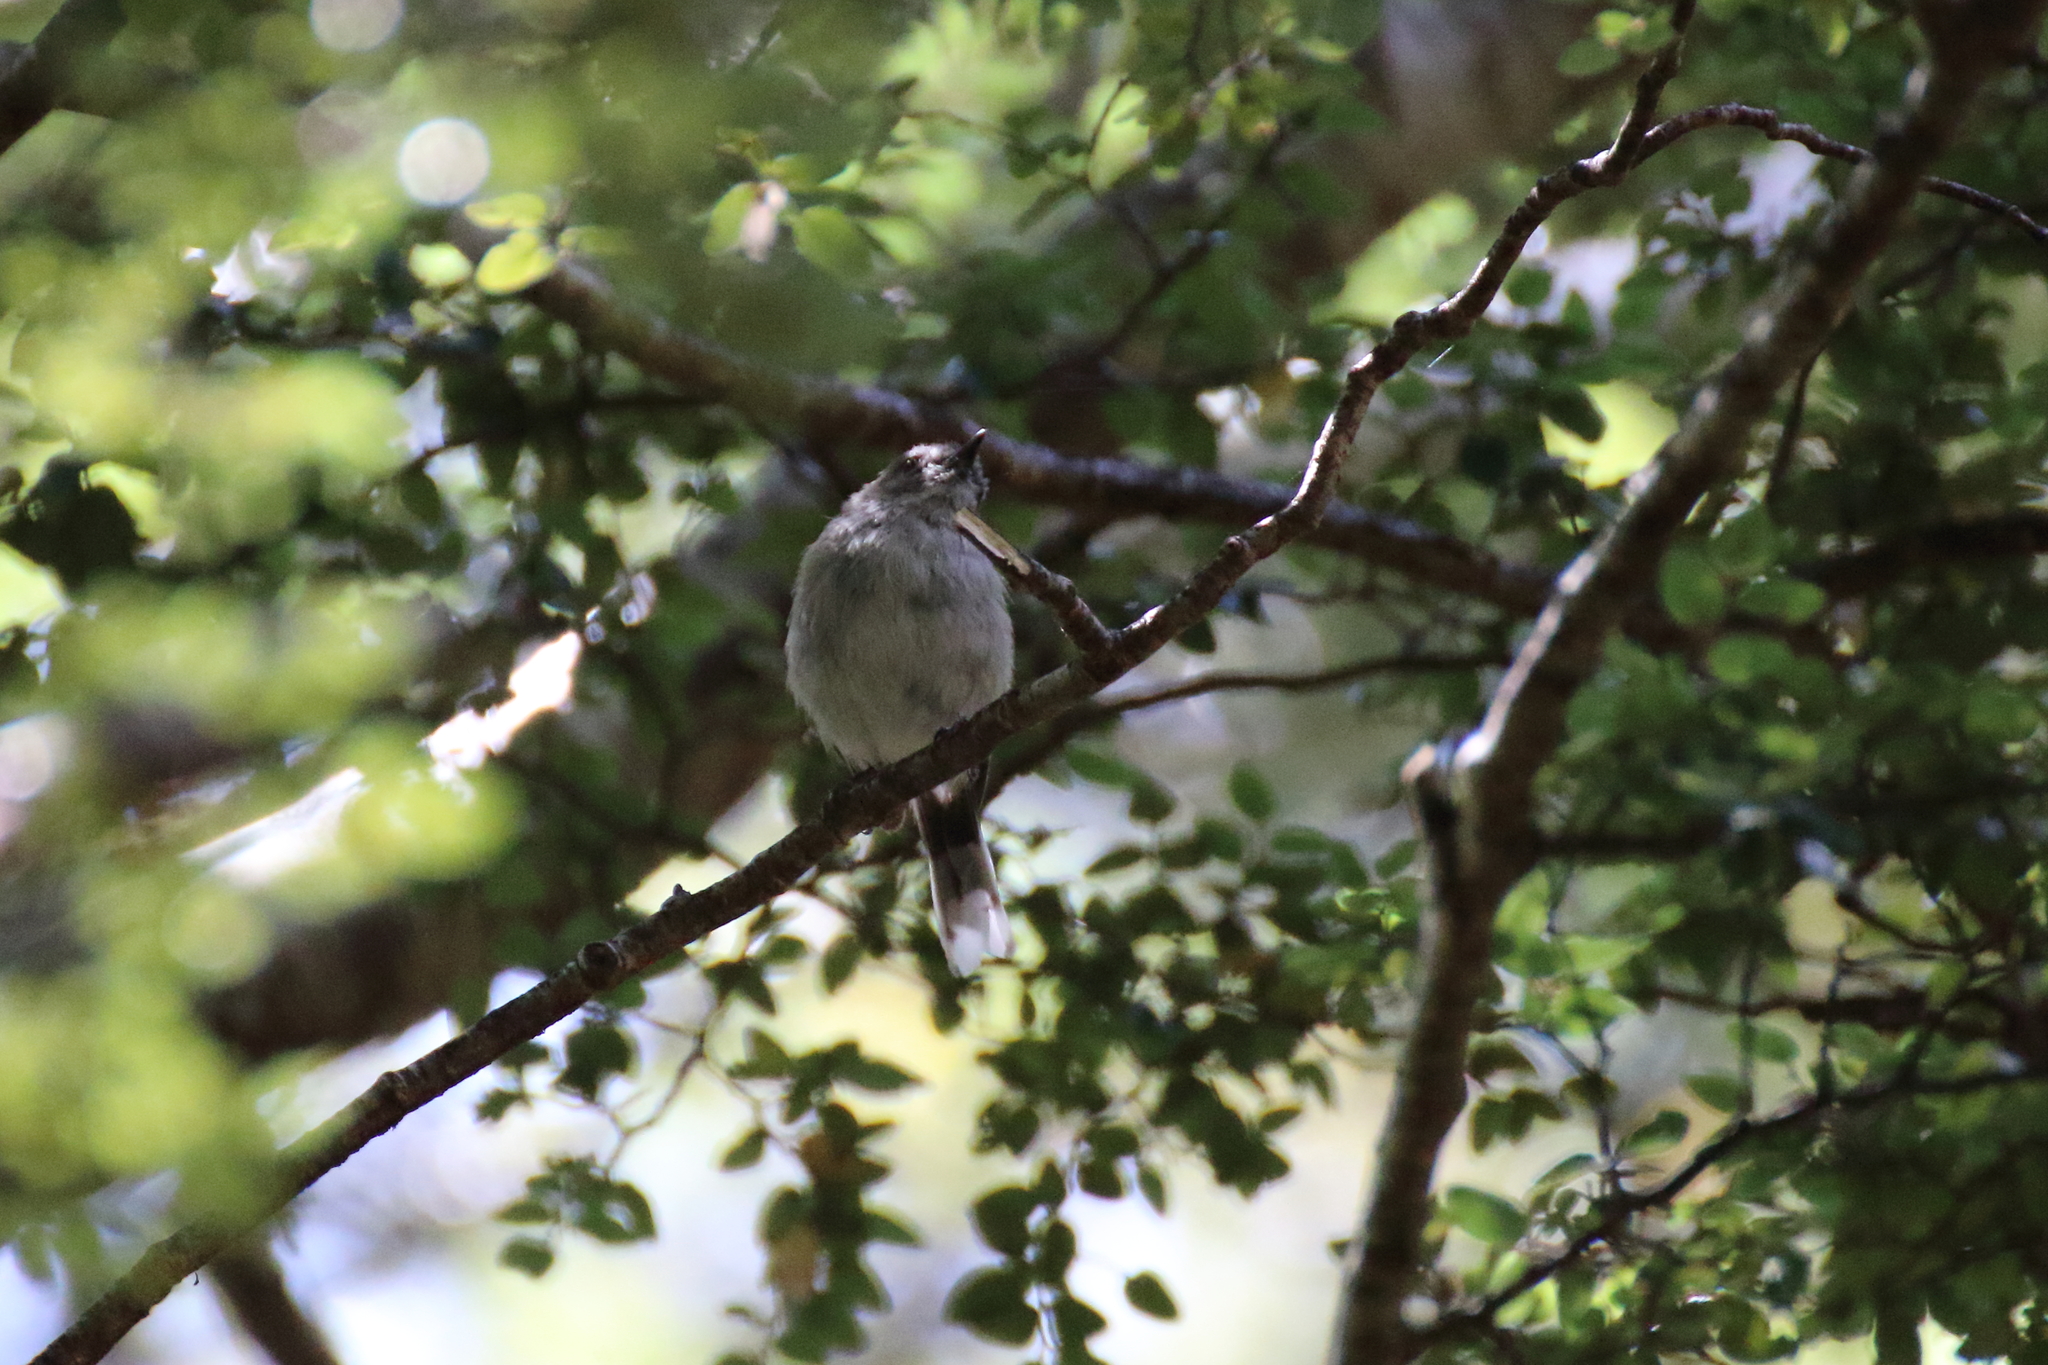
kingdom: Animalia
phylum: Chordata
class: Aves
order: Passeriformes
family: Acanthizidae
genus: Gerygone
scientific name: Gerygone igata
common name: Grey gerygone
